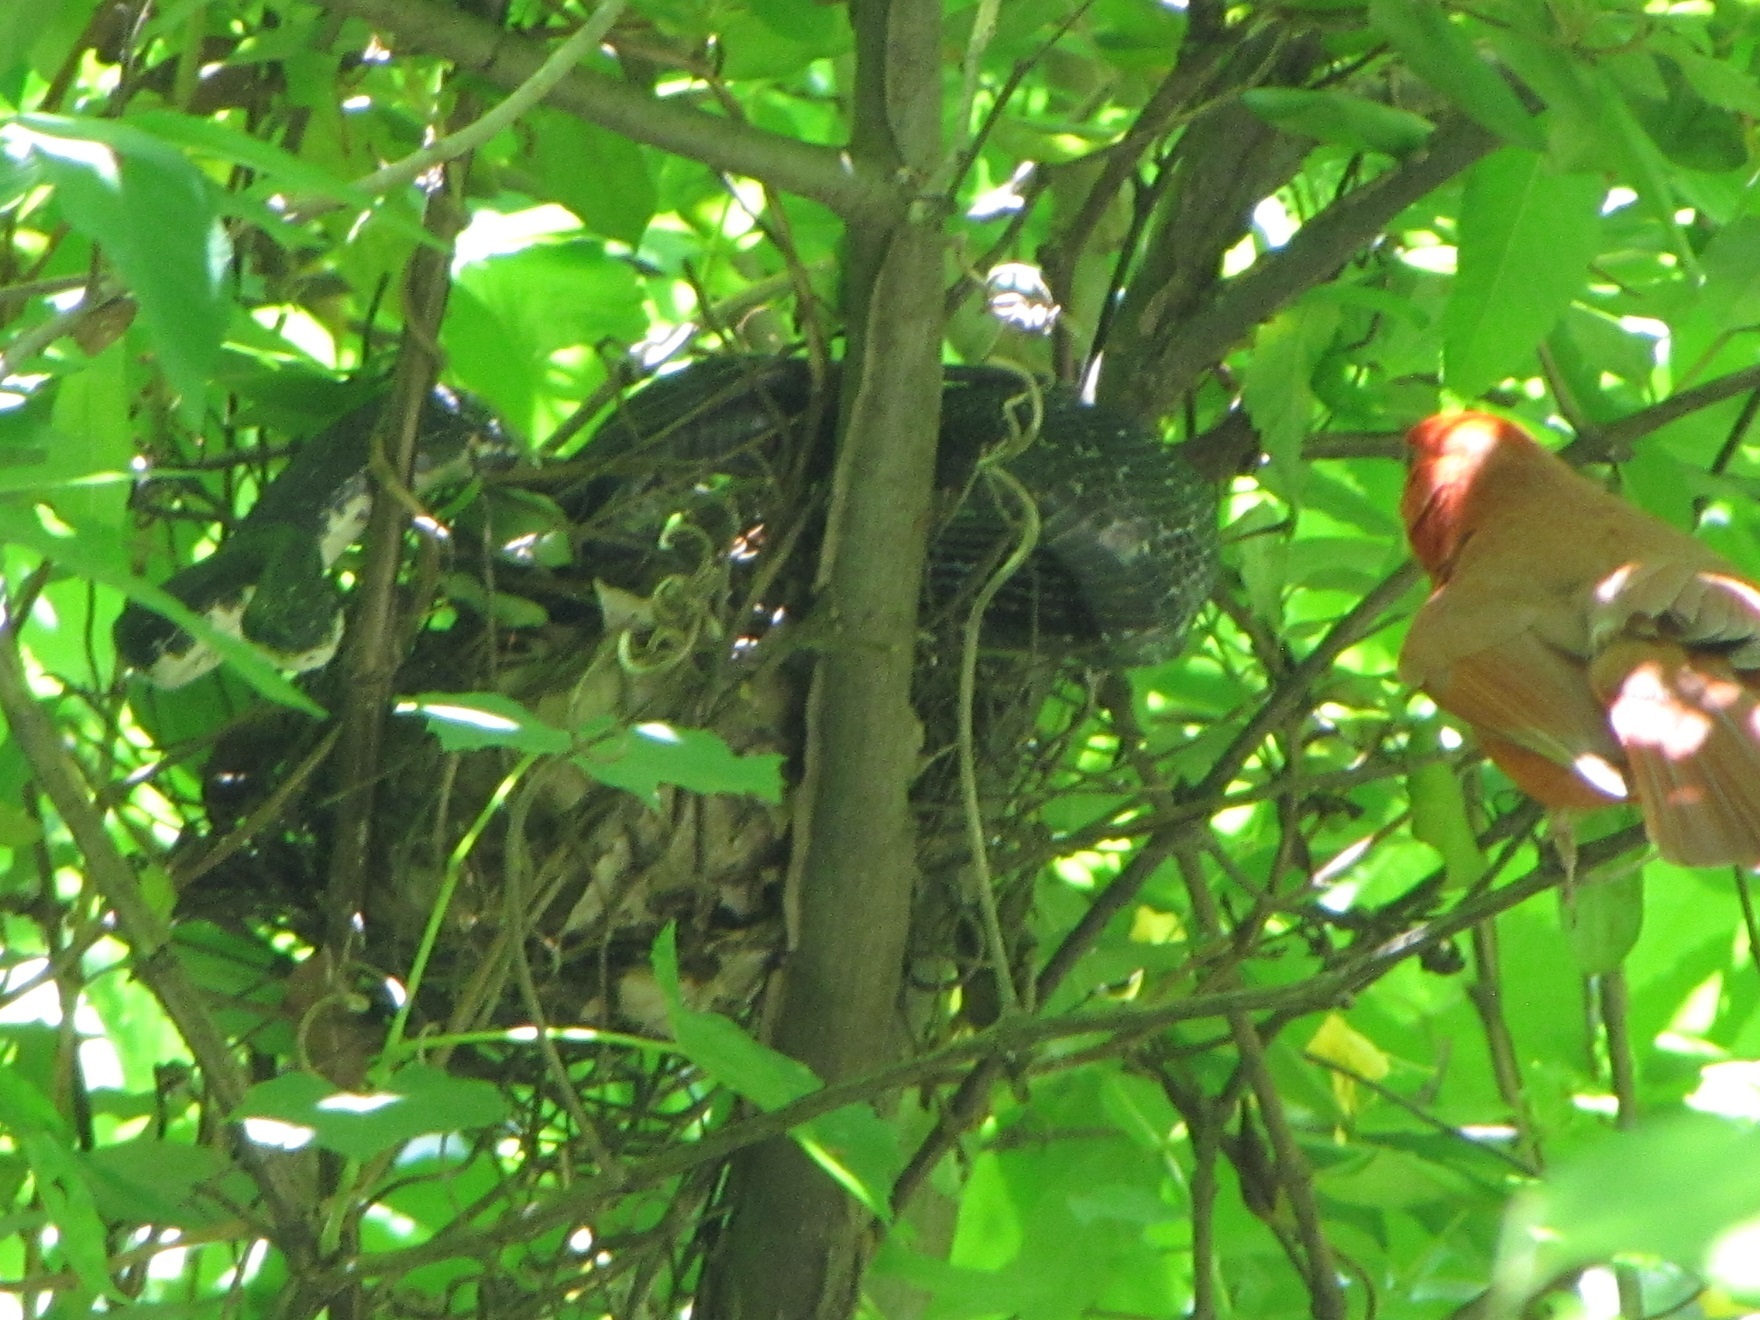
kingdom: Animalia
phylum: Chordata
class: Squamata
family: Colubridae
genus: Pantherophis
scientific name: Pantherophis alleghaniensis
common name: Eastern rat snake
